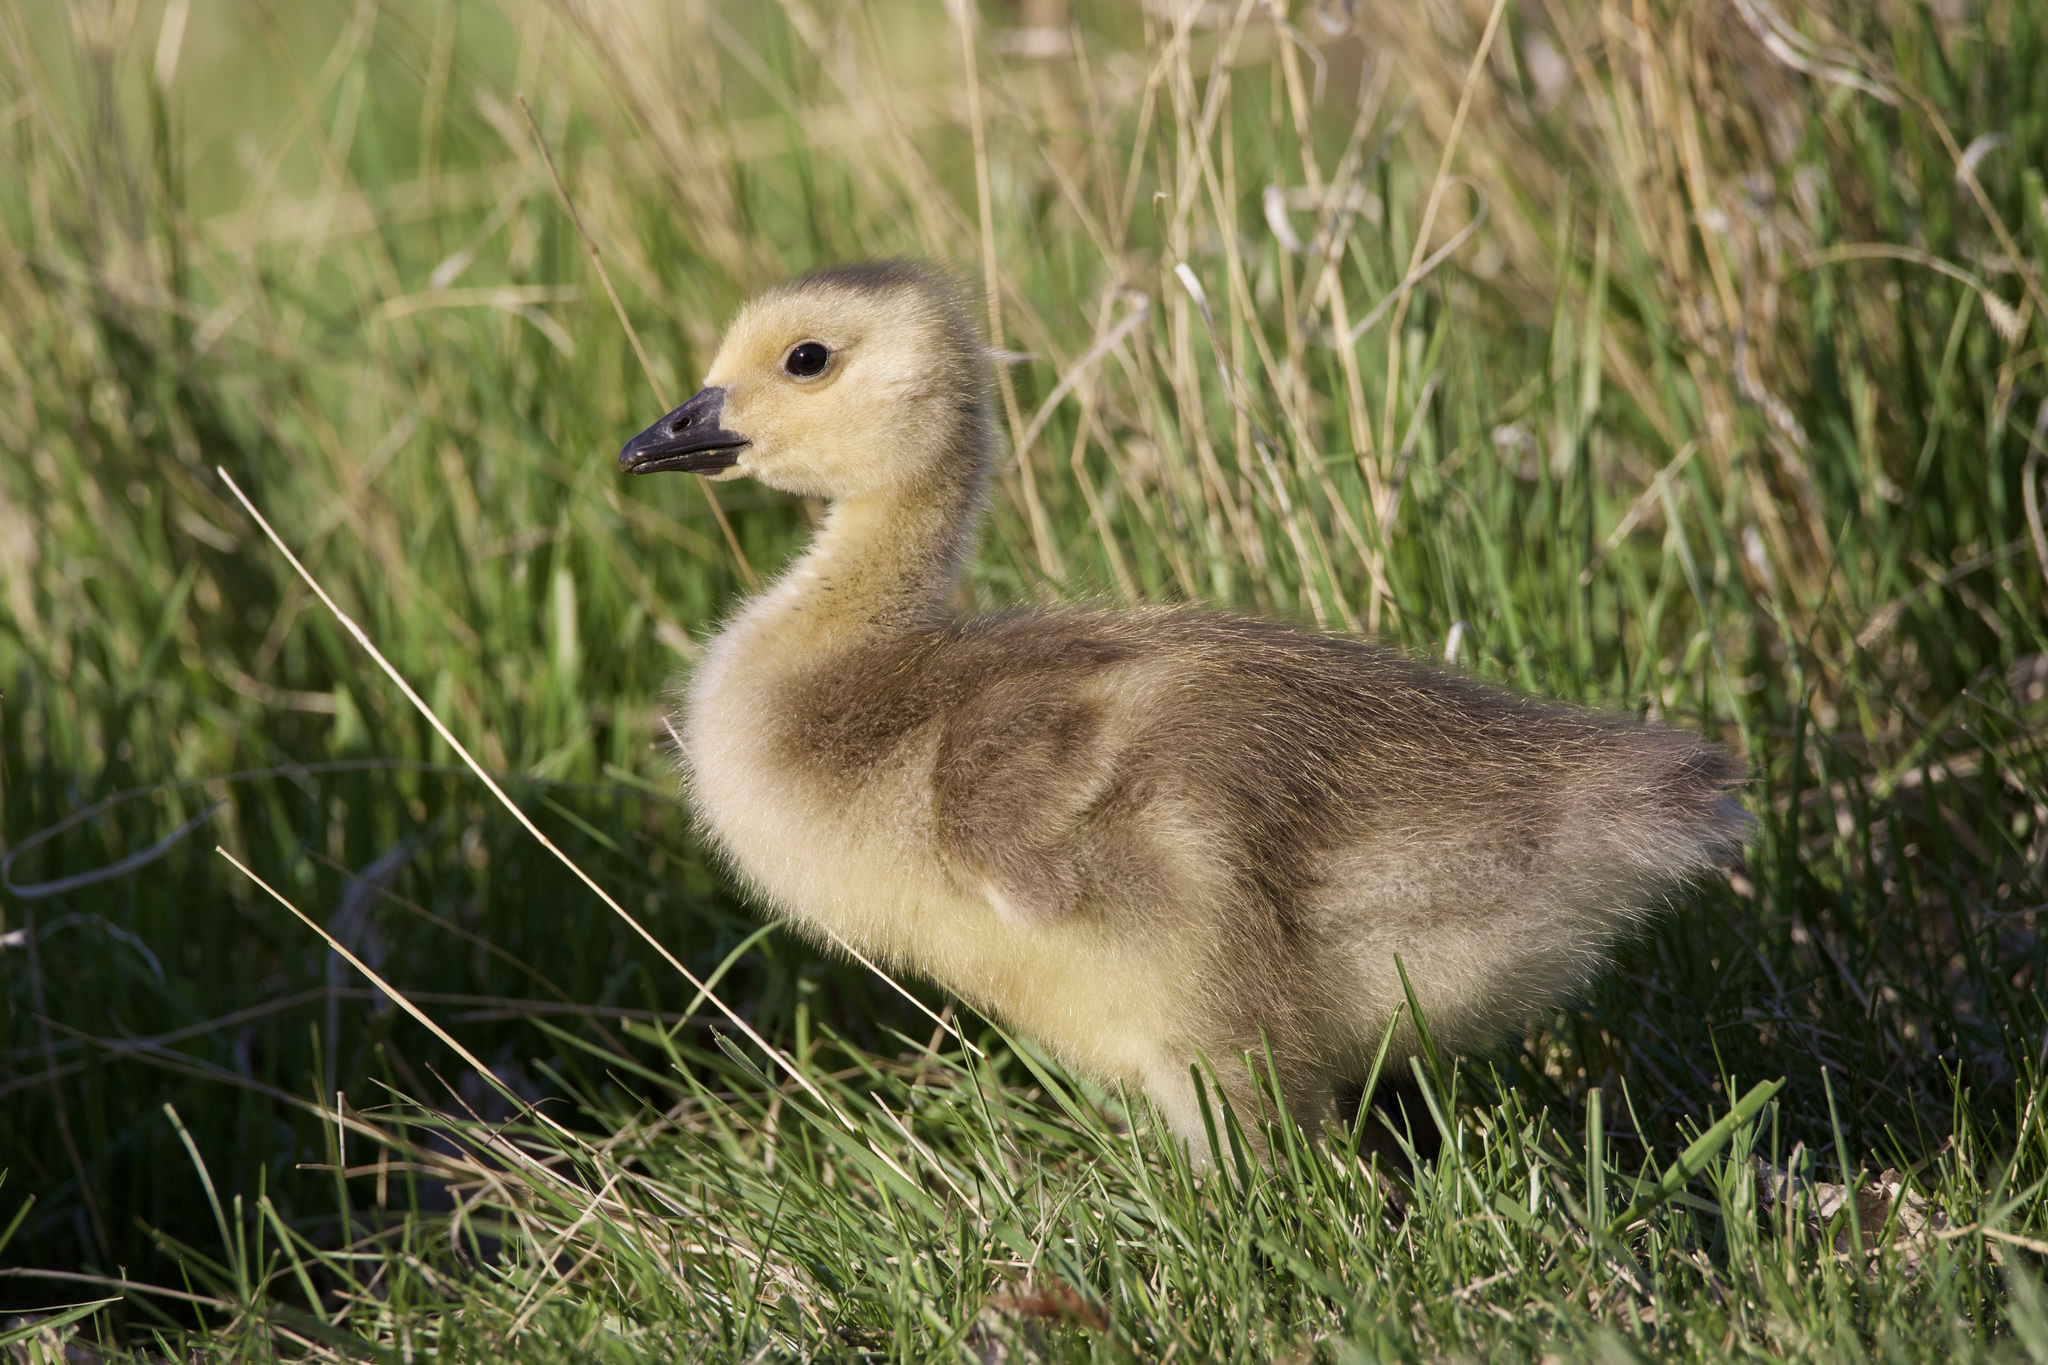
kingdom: Animalia
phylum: Chordata
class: Aves
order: Anseriformes
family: Anatidae
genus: Branta
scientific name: Branta canadensis
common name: Canada goose
